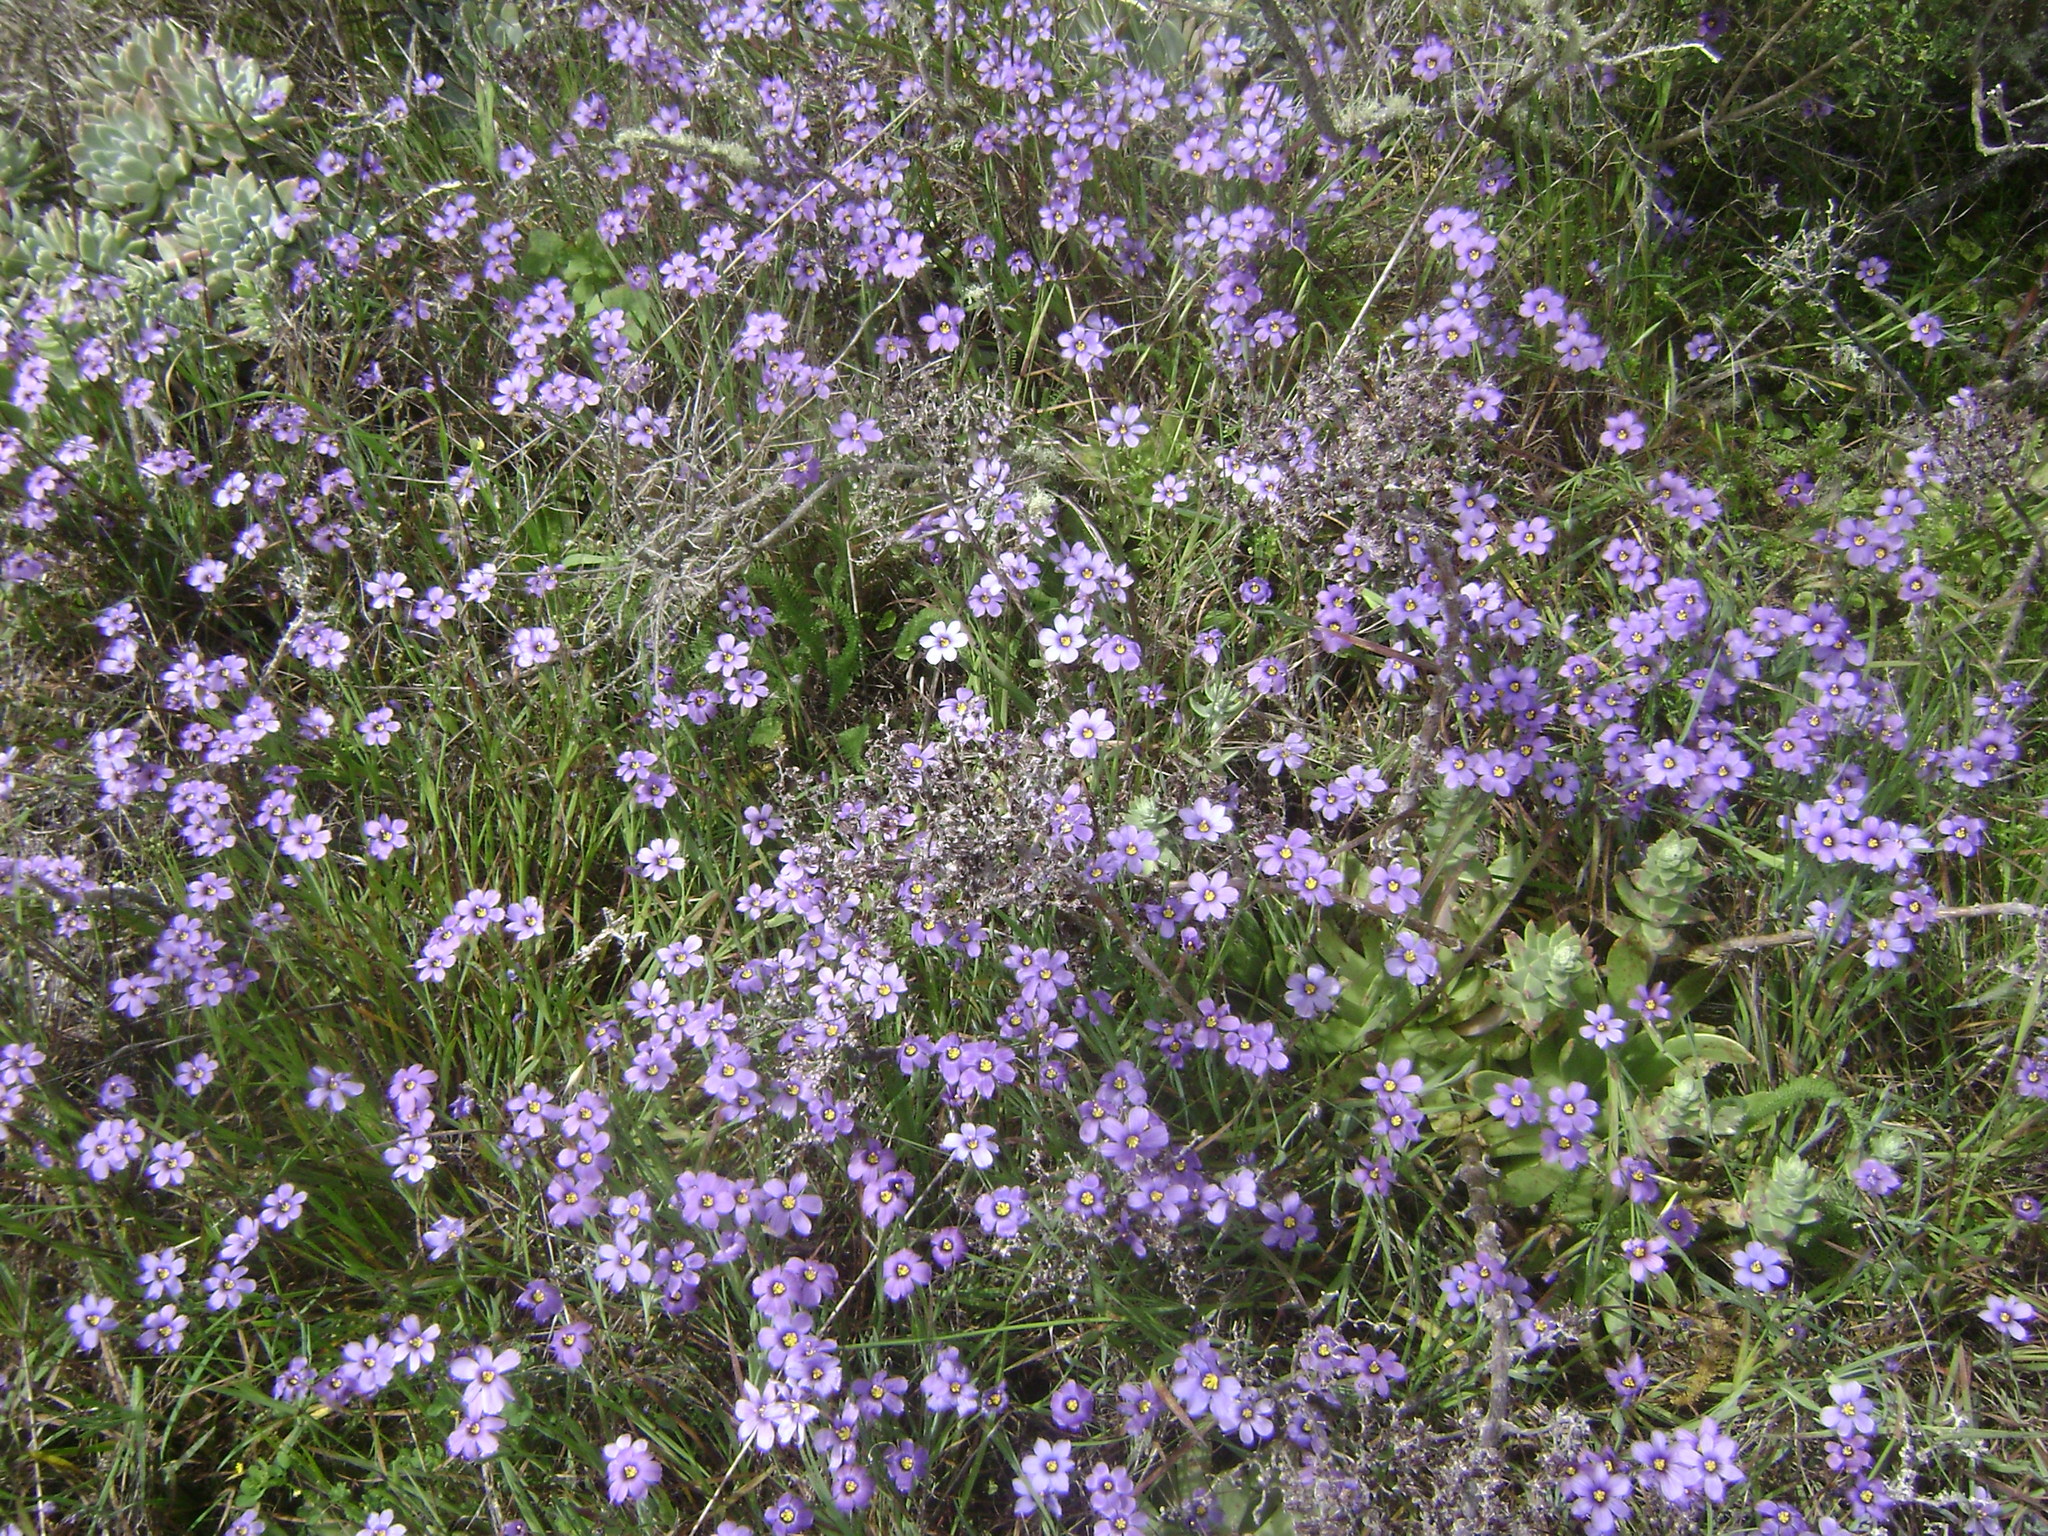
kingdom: Plantae
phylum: Tracheophyta
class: Liliopsida
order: Asparagales
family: Iridaceae
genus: Sisyrinchium
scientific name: Sisyrinchium bellum
